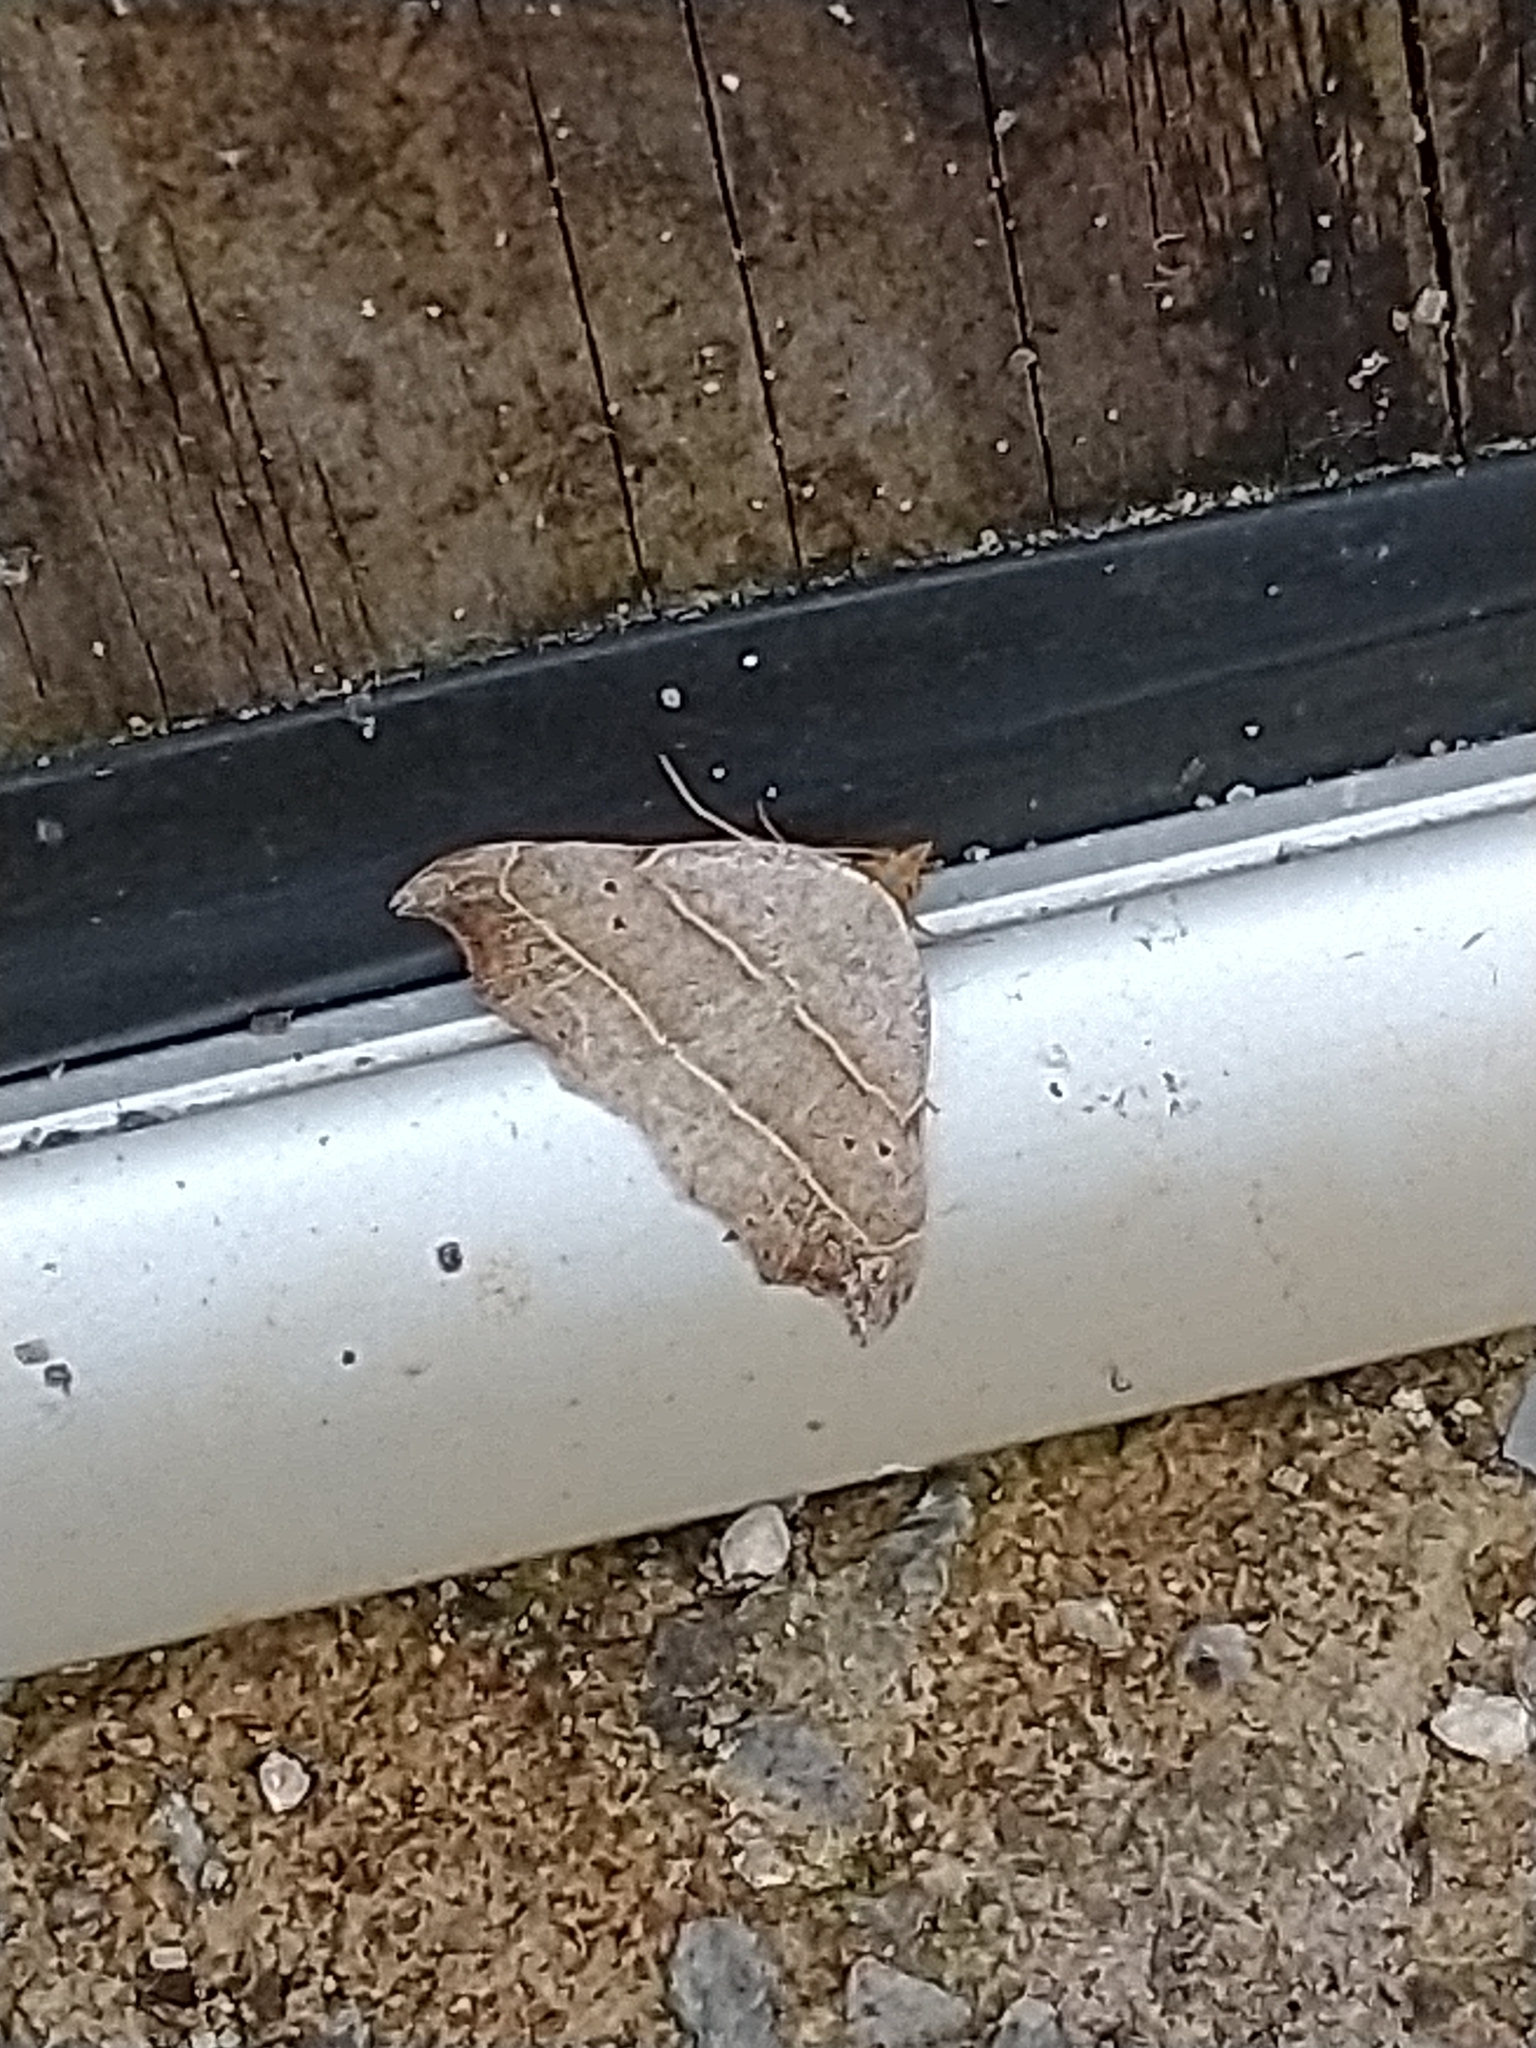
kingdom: Animalia
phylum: Arthropoda
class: Insecta
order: Lepidoptera
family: Erebidae
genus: Laspeyria
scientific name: Laspeyria flexula
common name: Beautiful hook-tip
